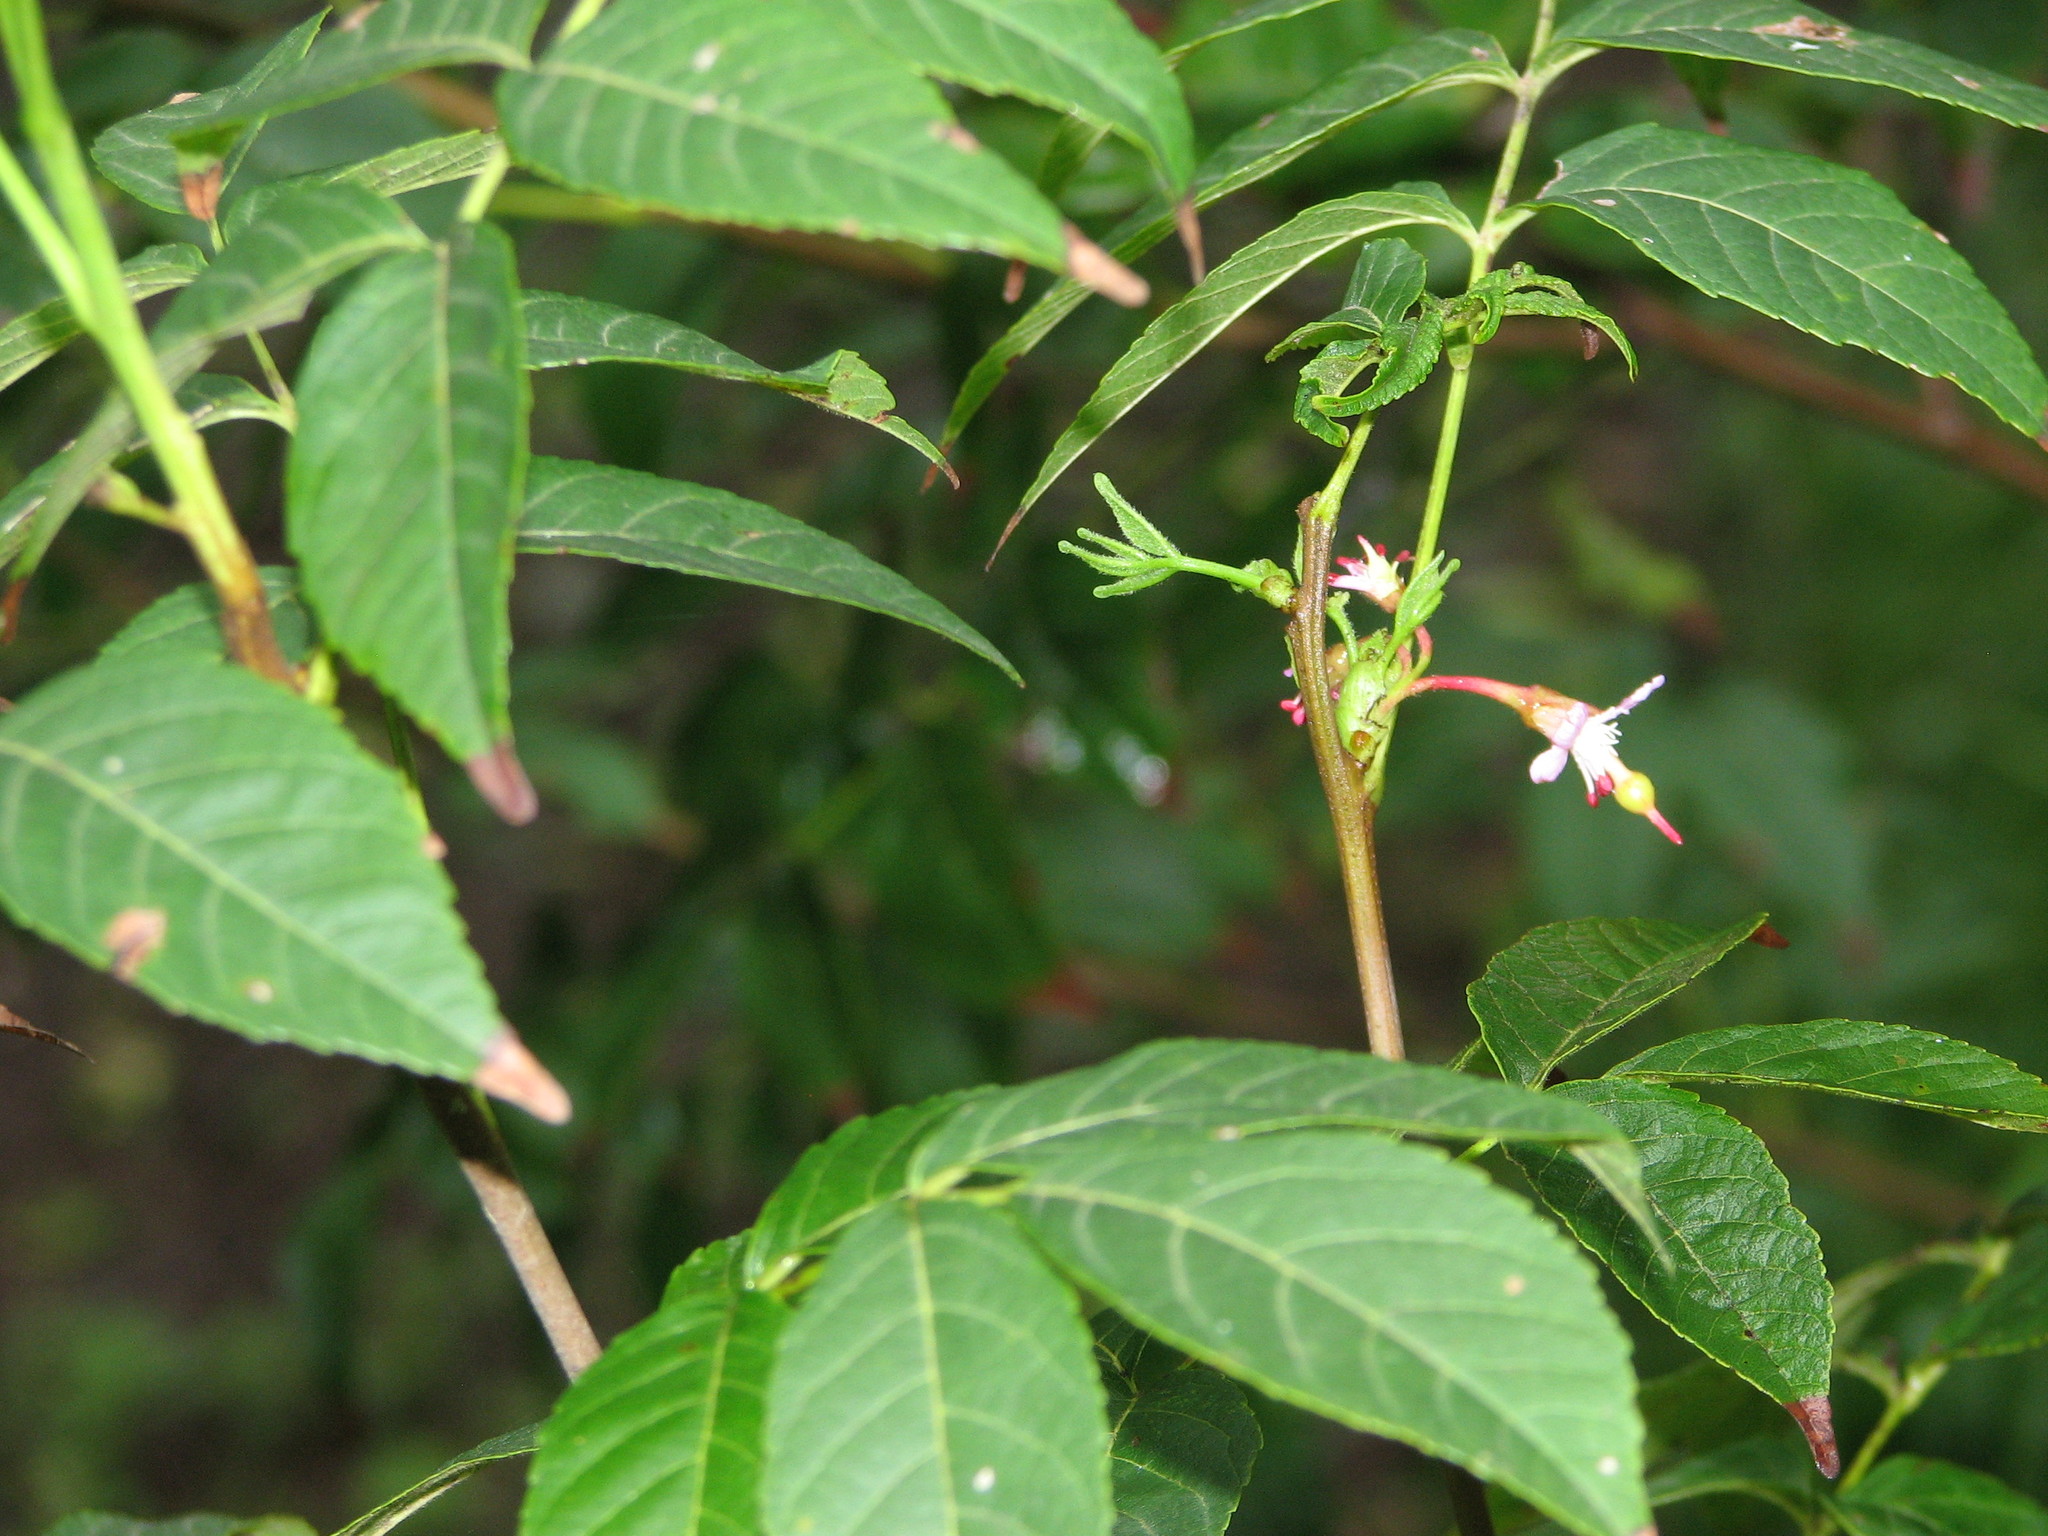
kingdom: Plantae
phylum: Tracheophyta
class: Magnoliopsida
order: Sapindales
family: Sapindaceae
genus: Ungnadia
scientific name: Ungnadia speciosa
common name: Texas-buckeye
